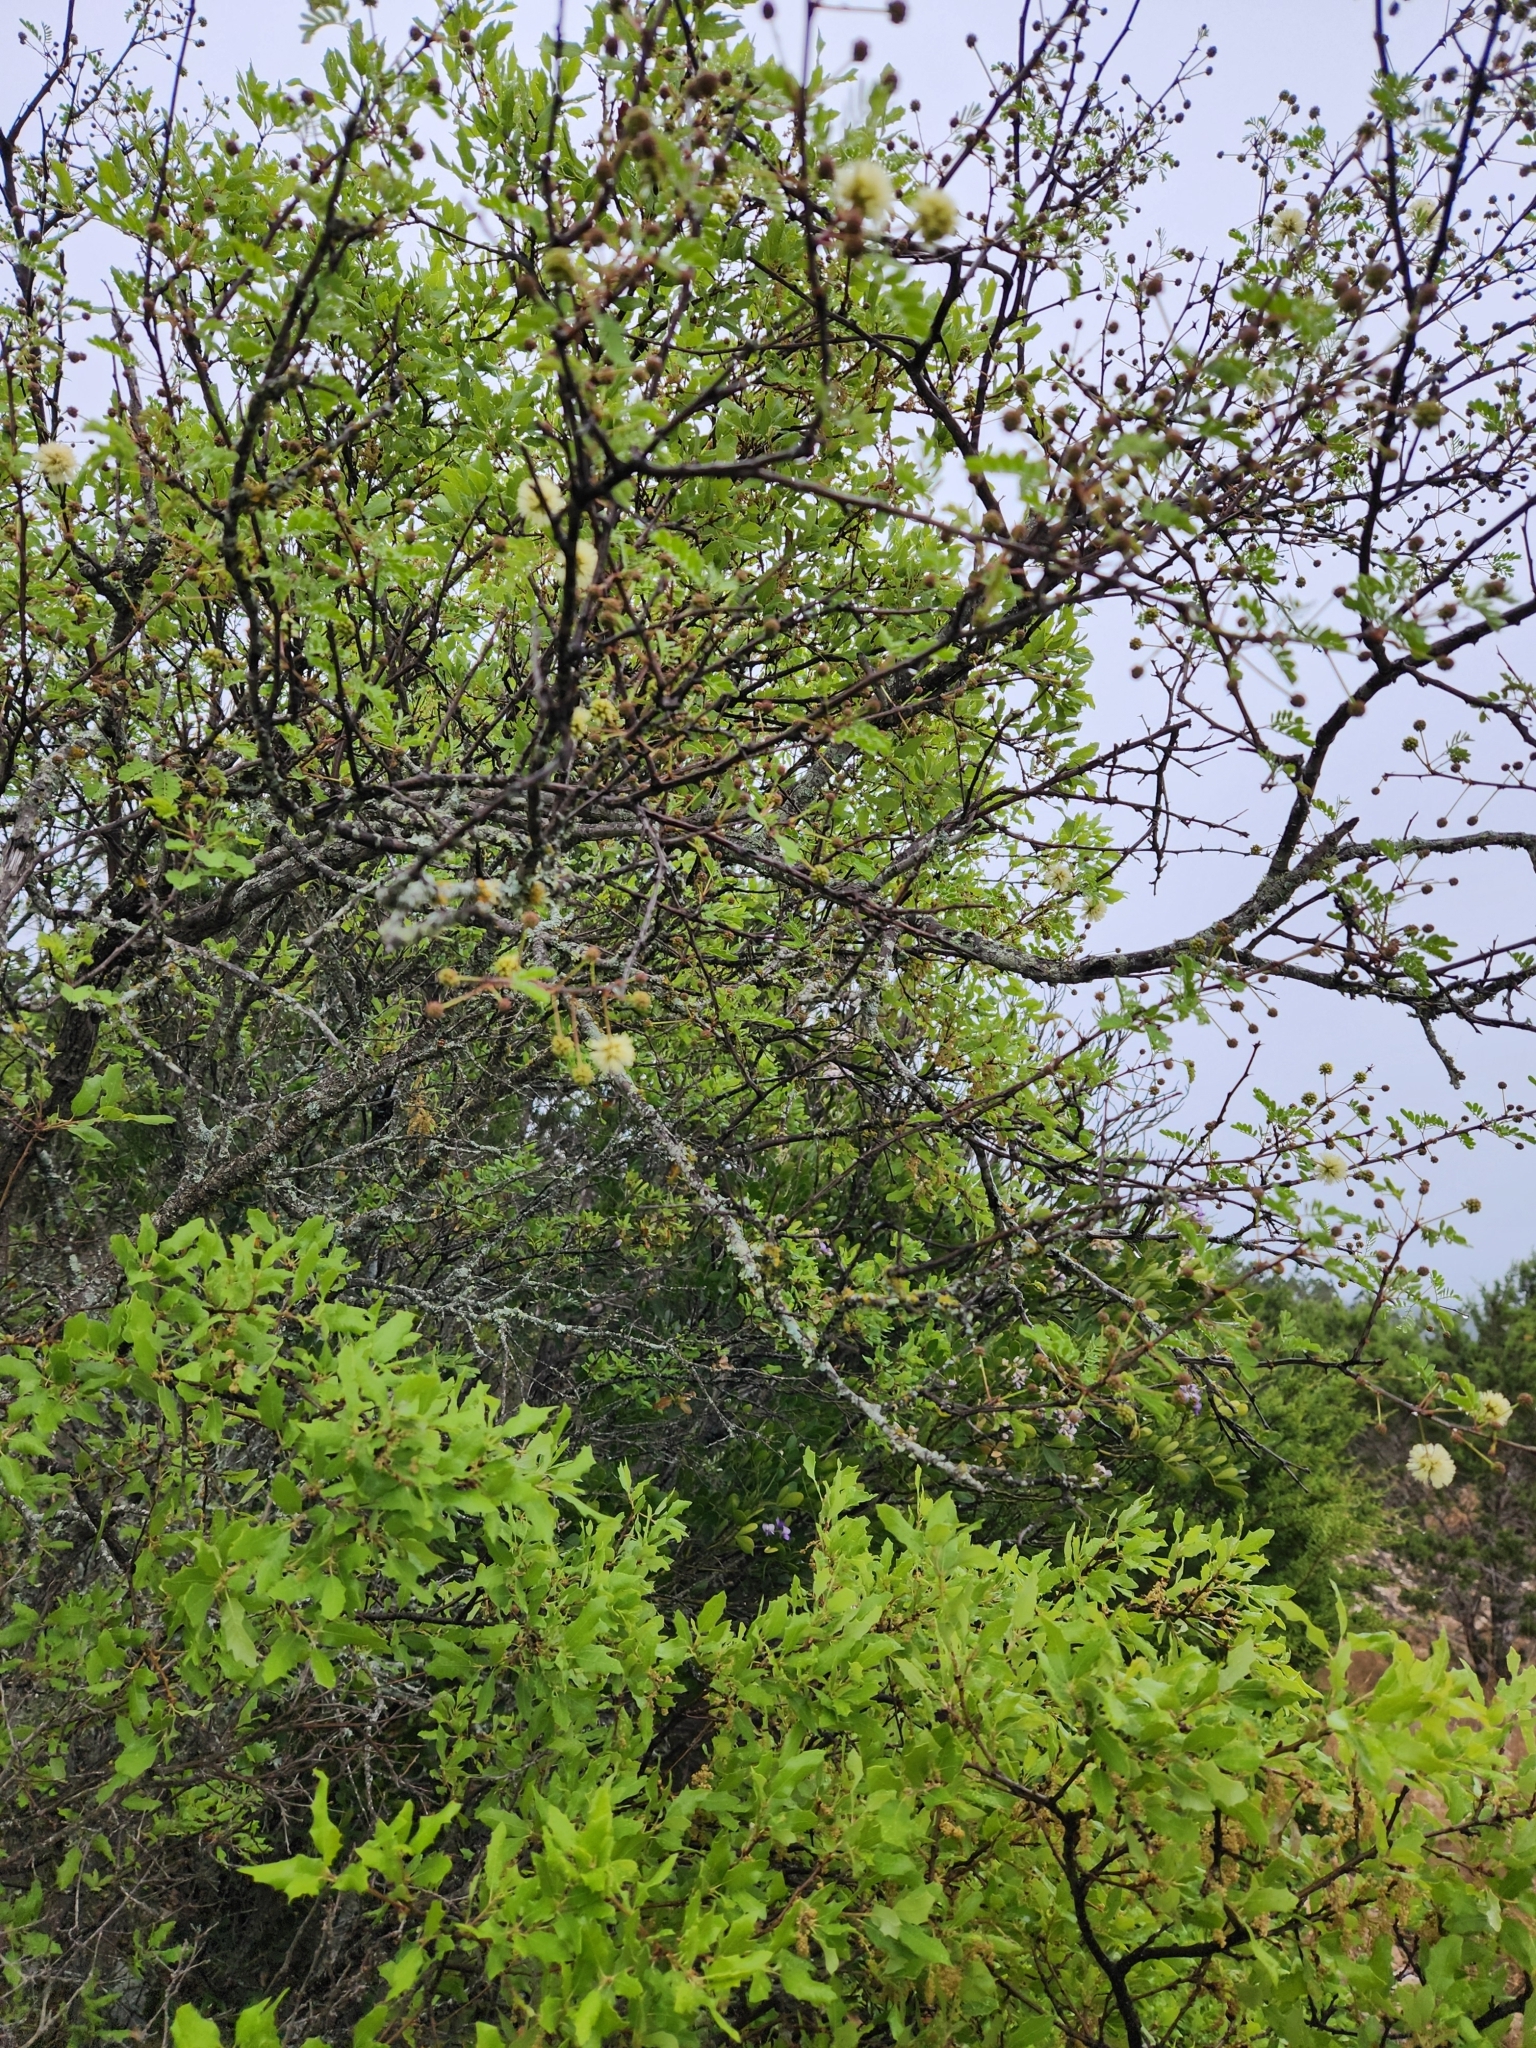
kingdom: Plantae
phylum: Tracheophyta
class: Magnoliopsida
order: Fabales
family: Fabaceae
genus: Senegalia
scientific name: Senegalia roemeriana
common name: Roemer's acacia
